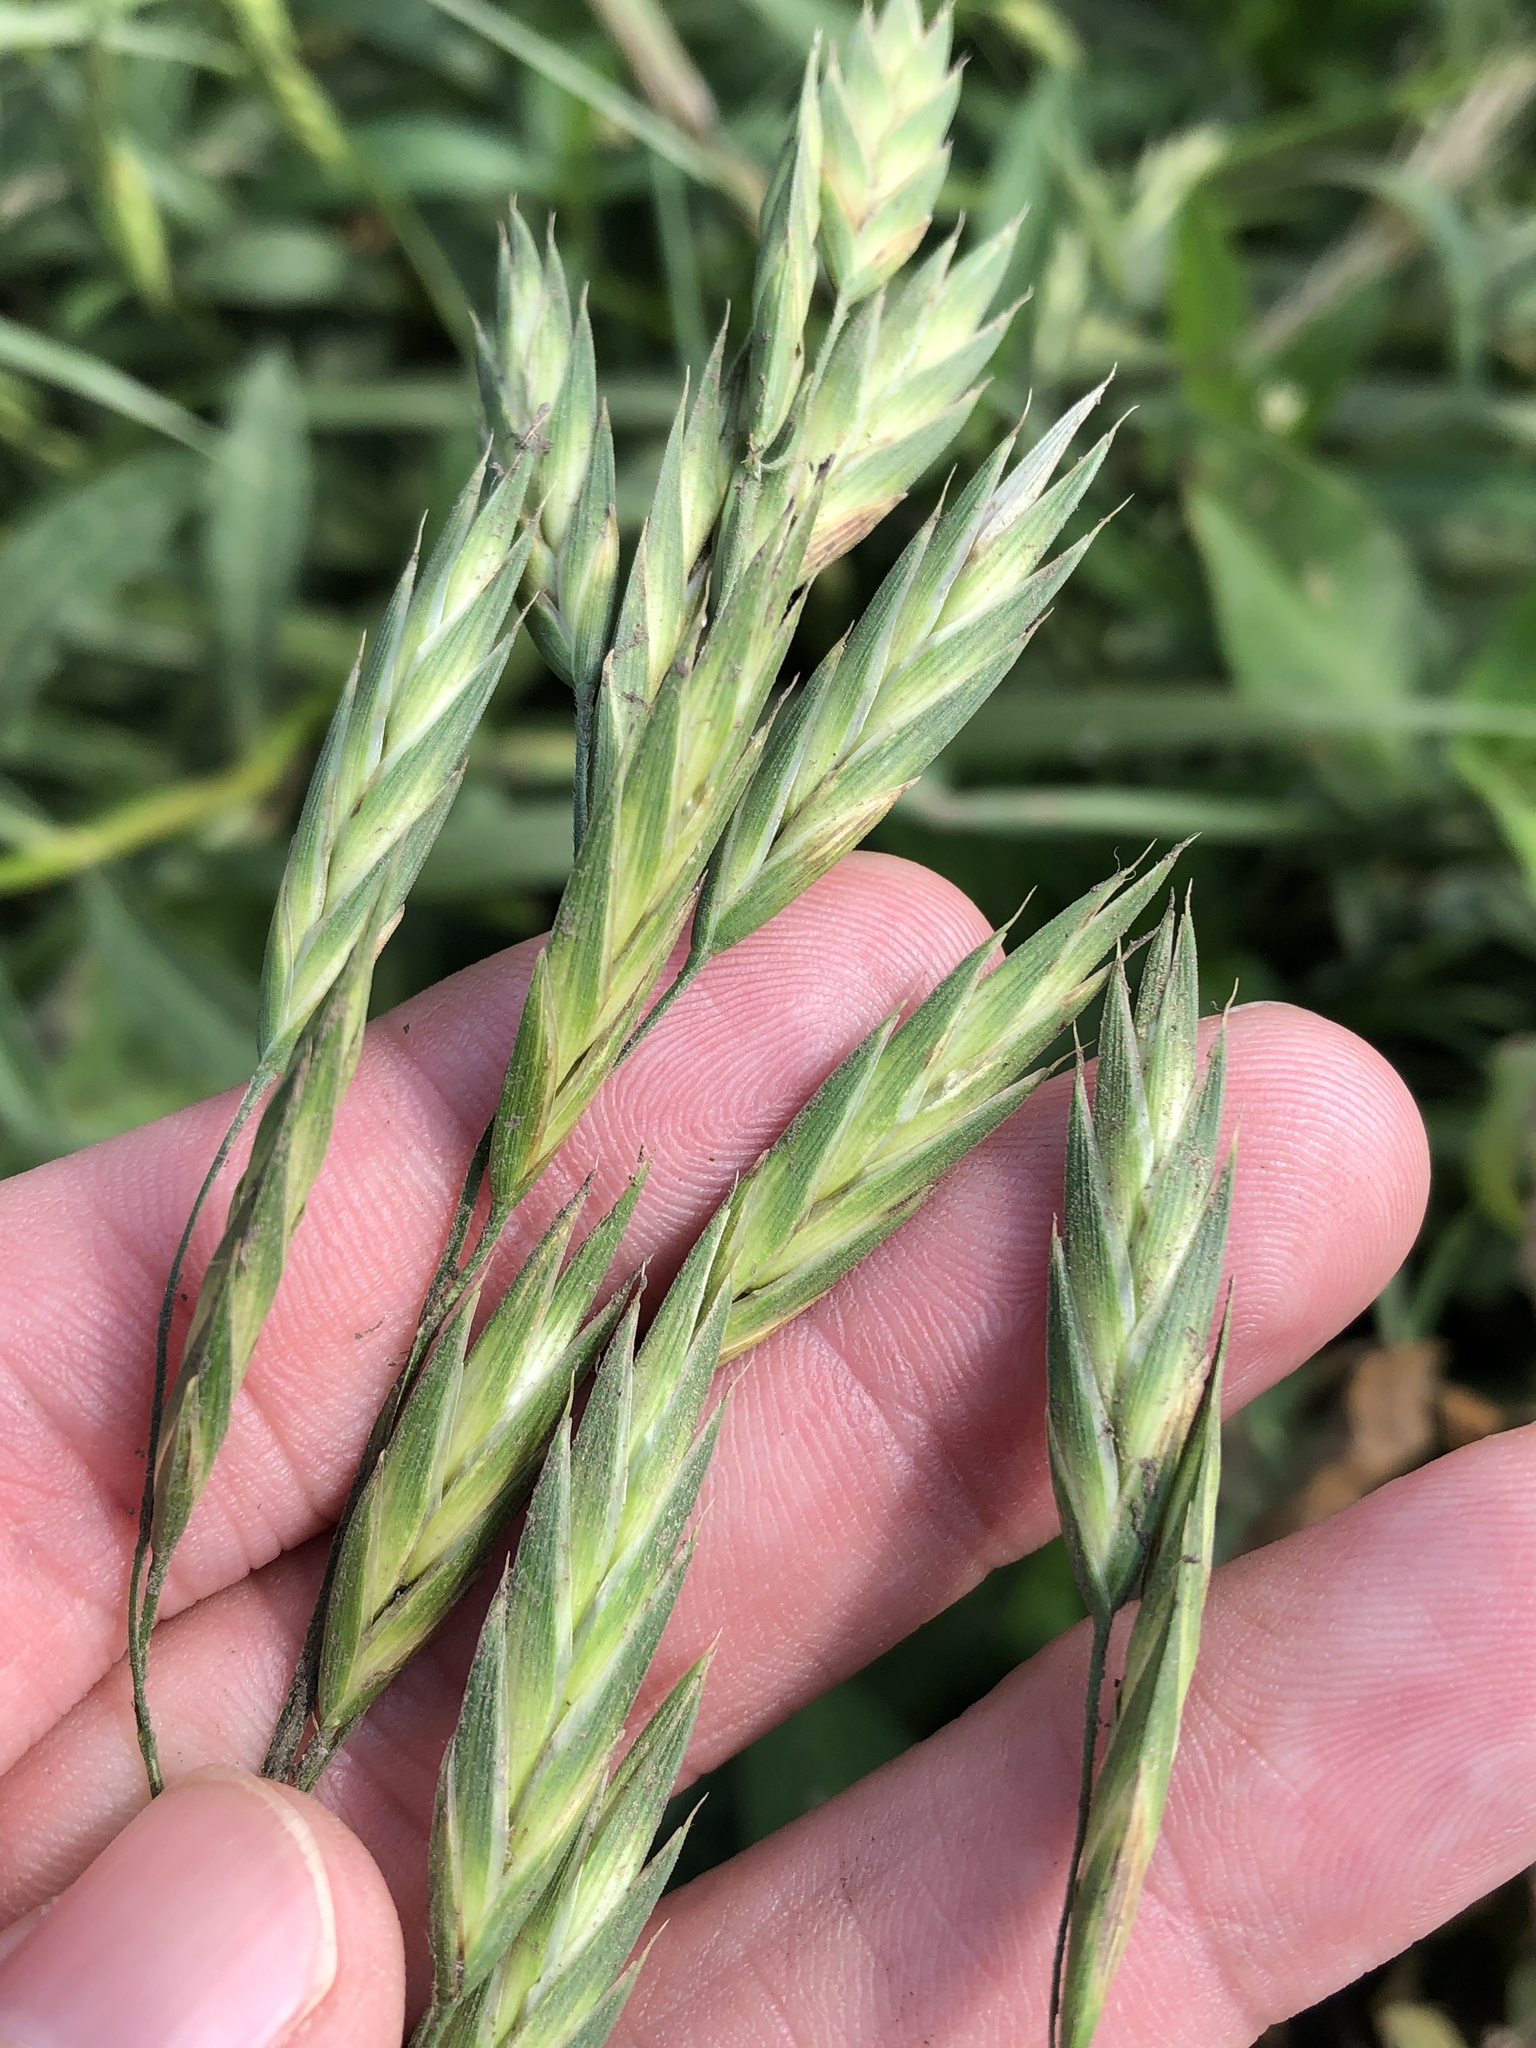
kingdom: Plantae
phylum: Tracheophyta
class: Liliopsida
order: Poales
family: Poaceae
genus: Bromus
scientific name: Bromus catharticus
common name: Rescuegrass
